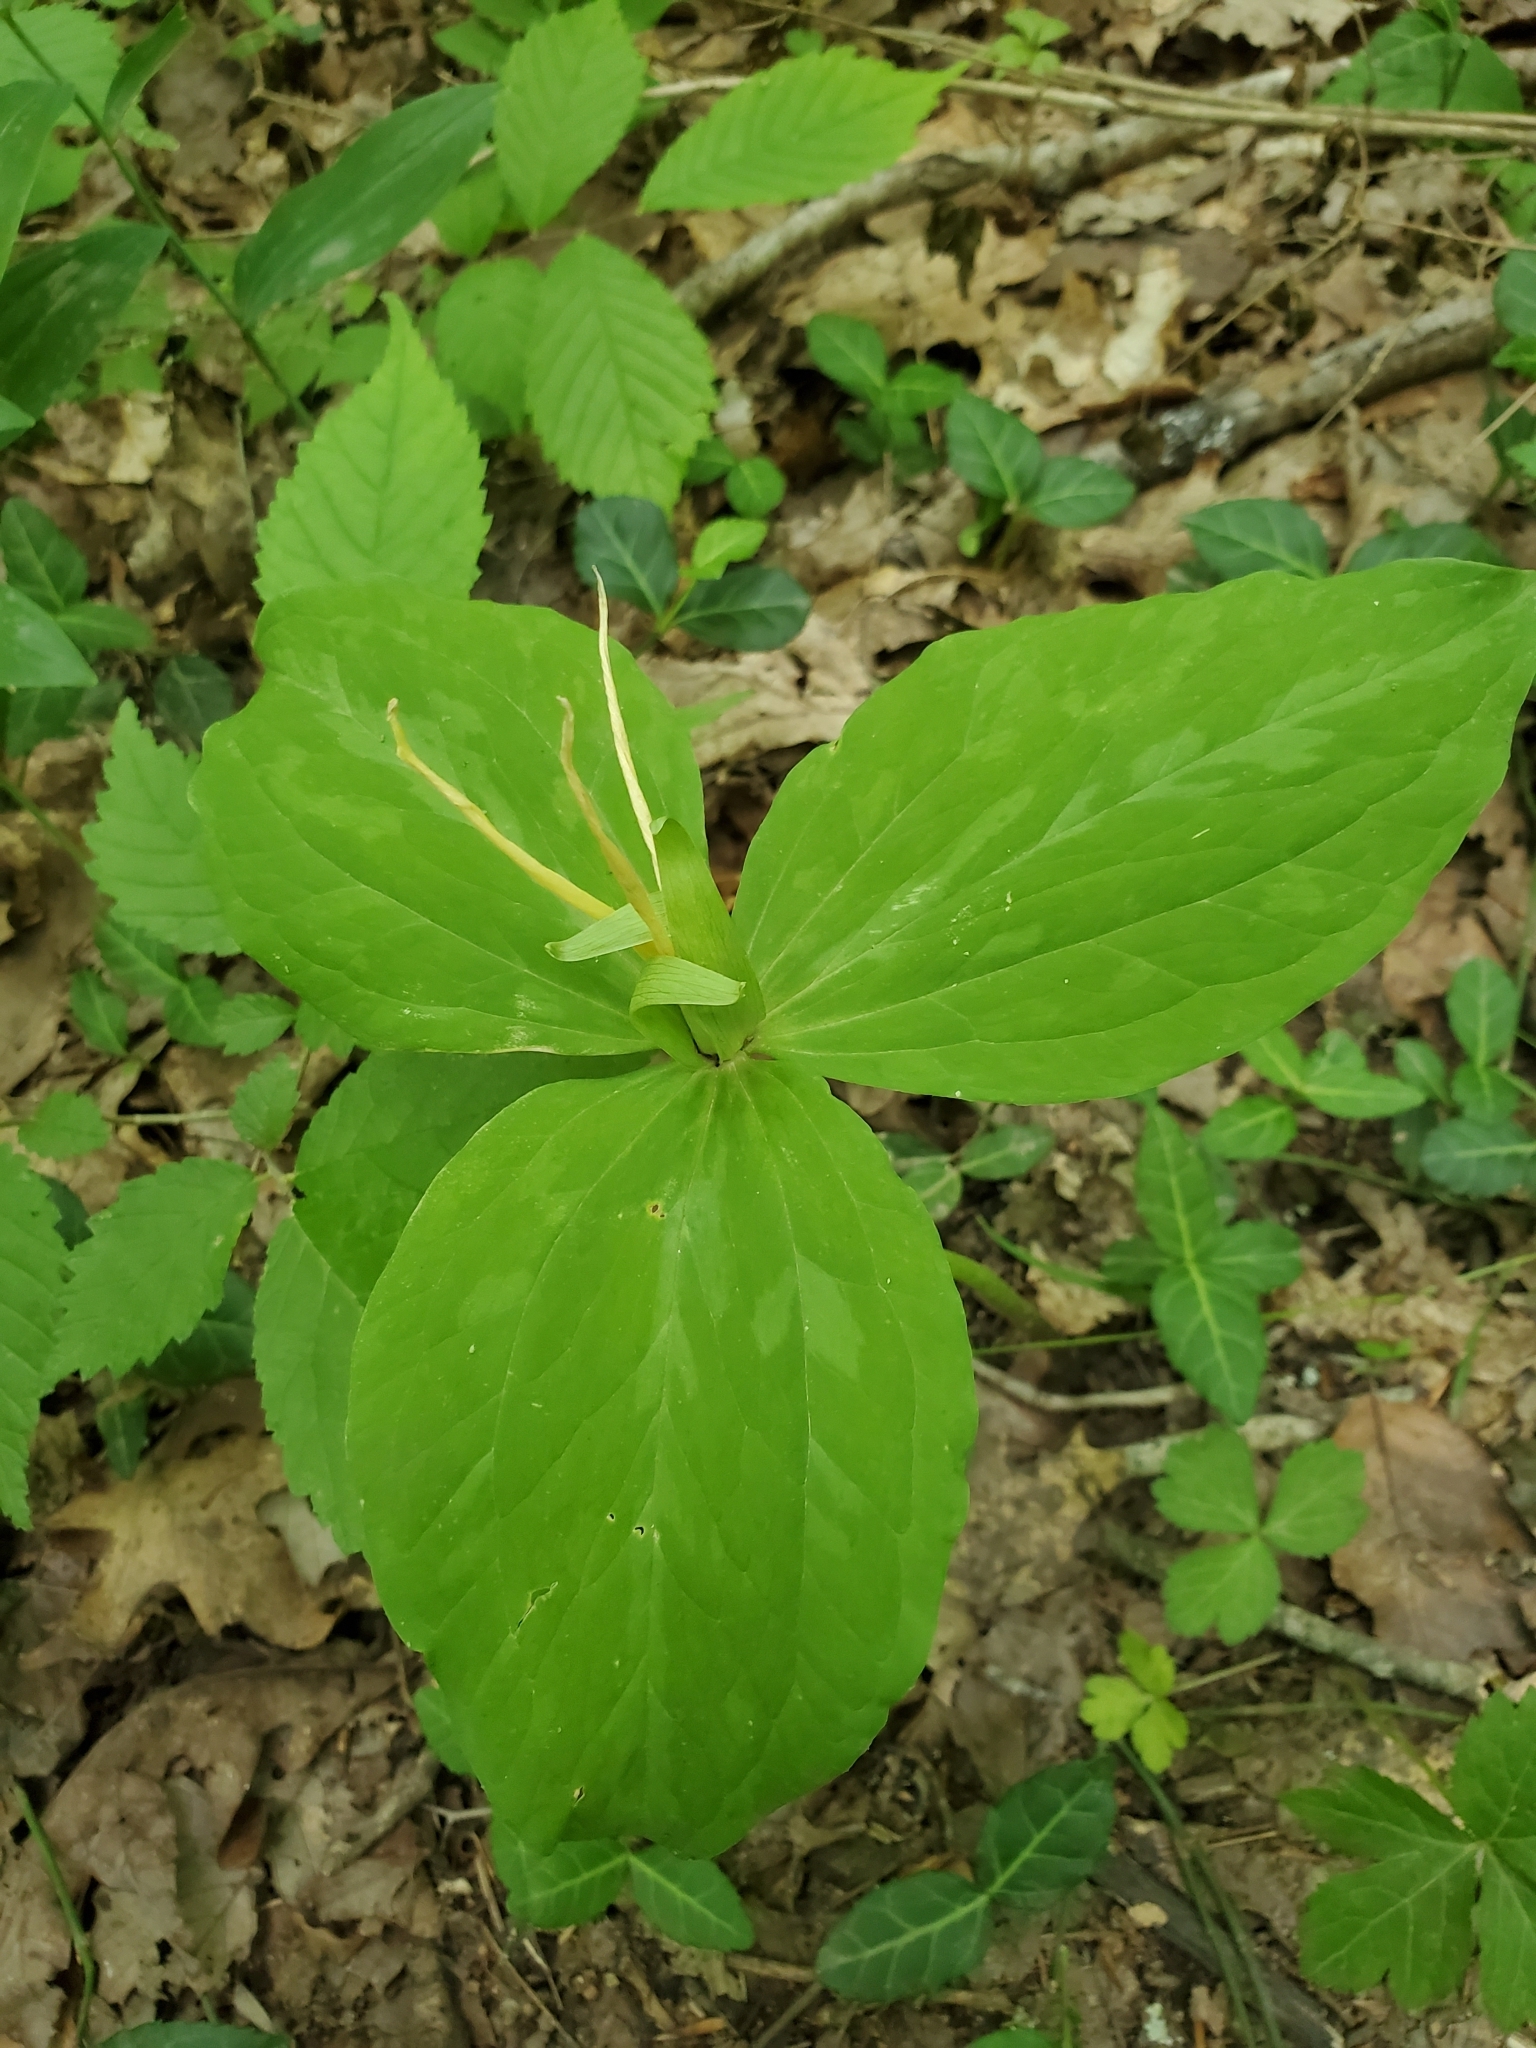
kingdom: Plantae
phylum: Tracheophyta
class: Liliopsida
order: Liliales
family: Melanthiaceae
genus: Trillium
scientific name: Trillium luteum
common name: Wax trillium
